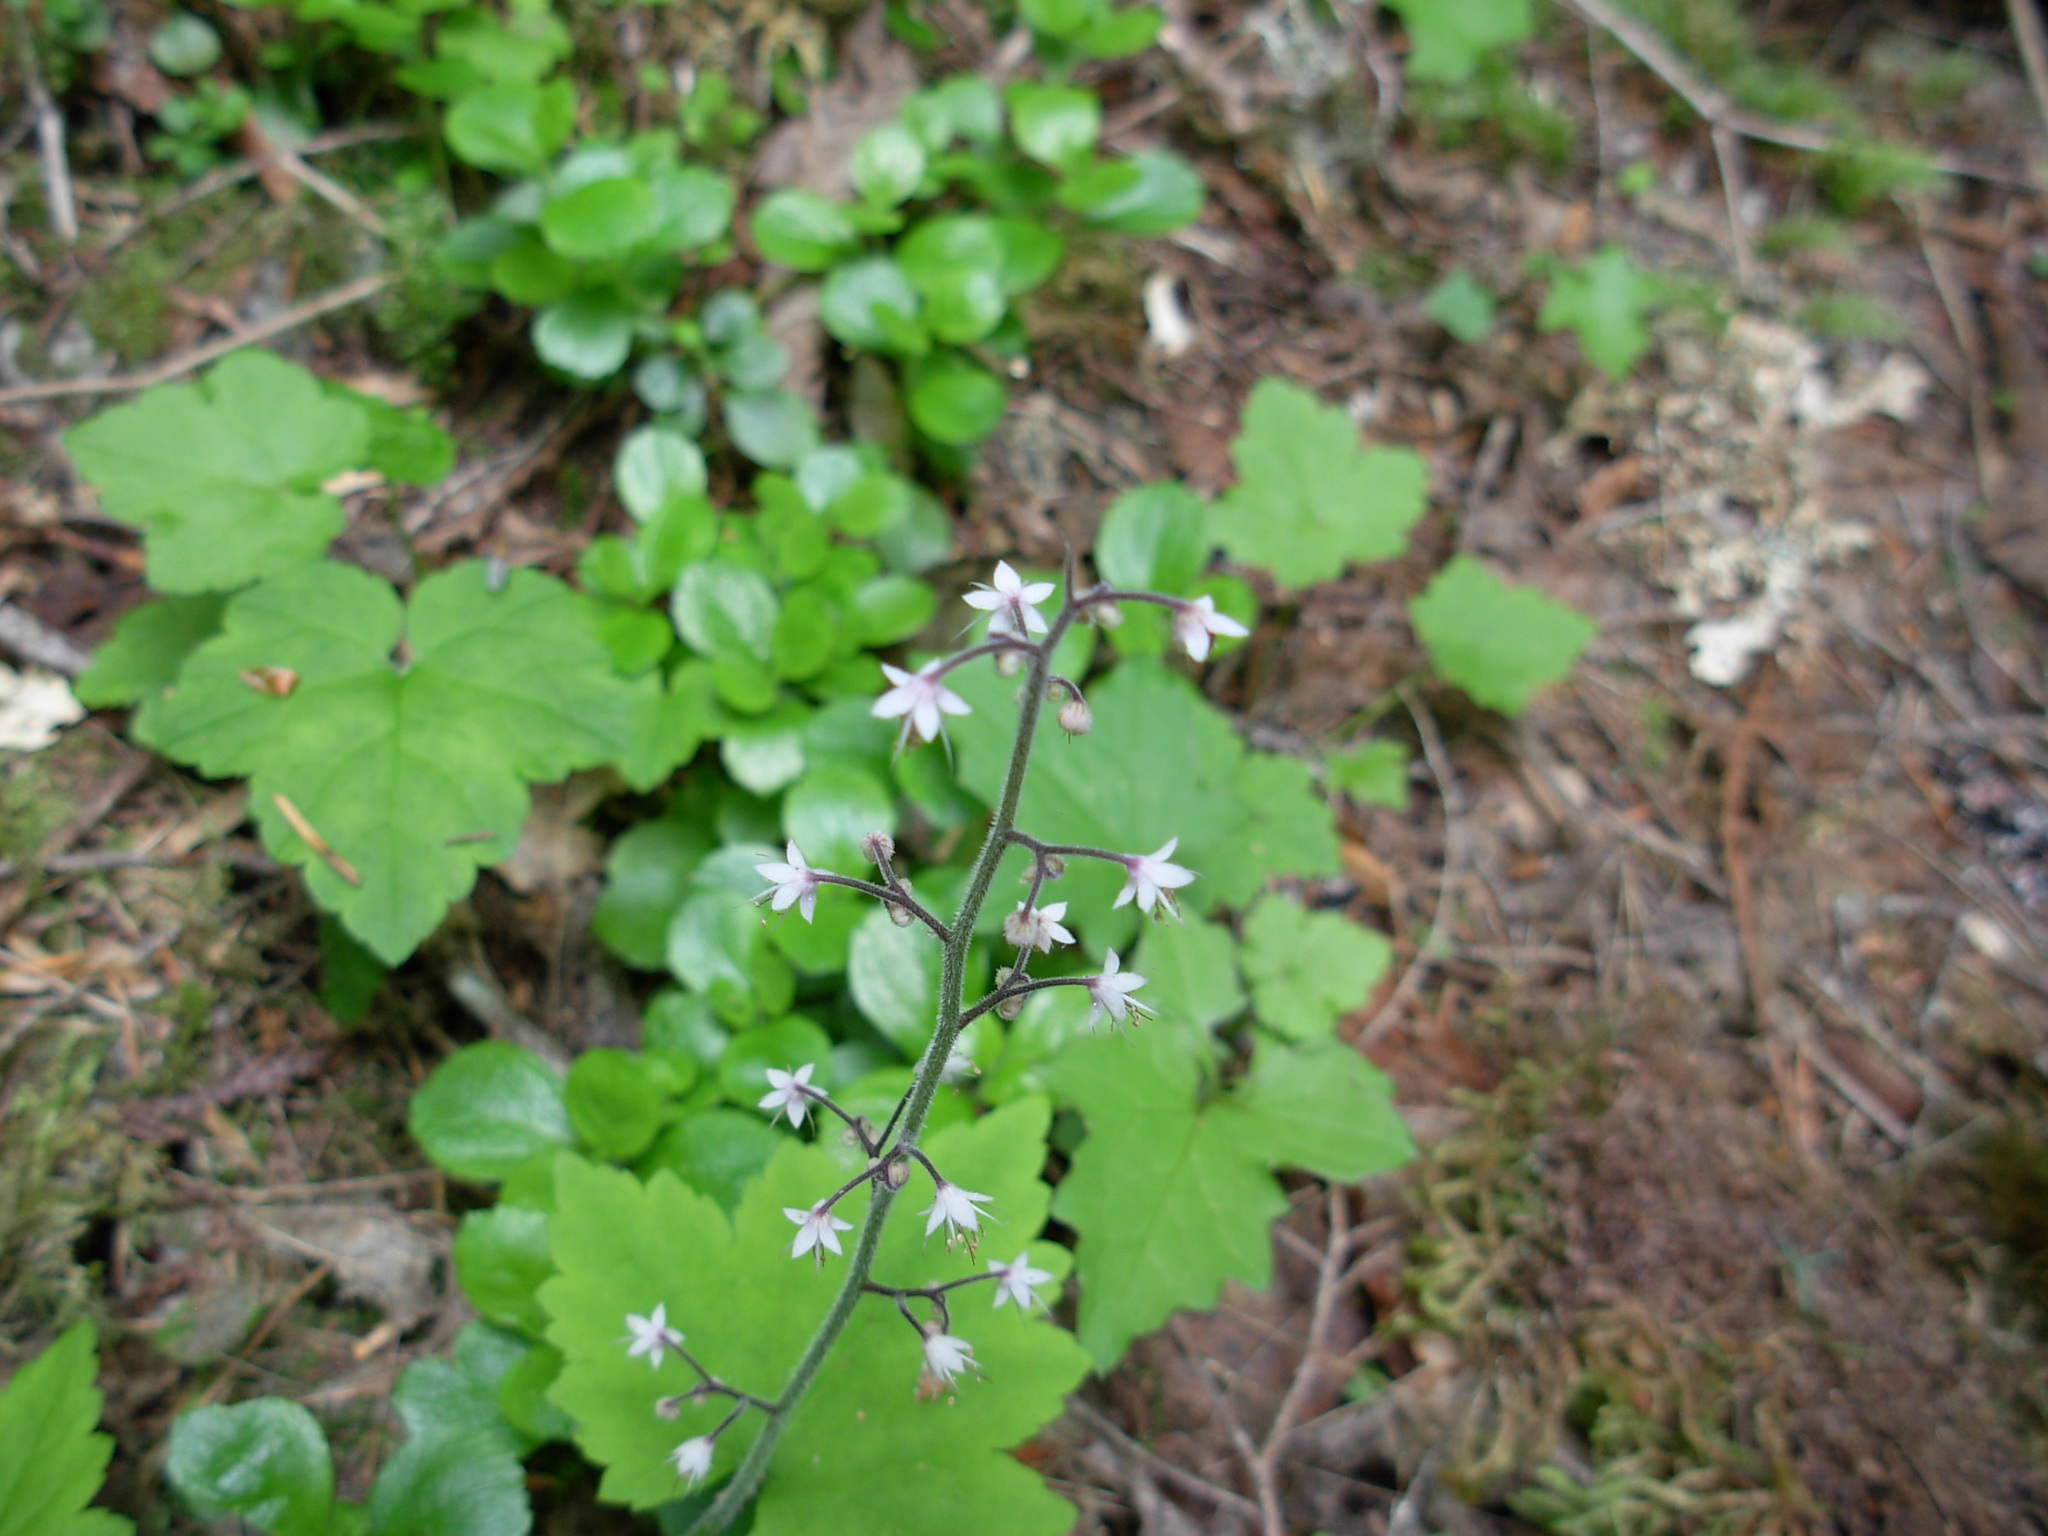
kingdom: Plantae
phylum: Tracheophyta
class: Magnoliopsida
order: Saxifragales
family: Saxifragaceae
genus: Tiarella
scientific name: Tiarella trifoliata
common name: Sugar-scoop
